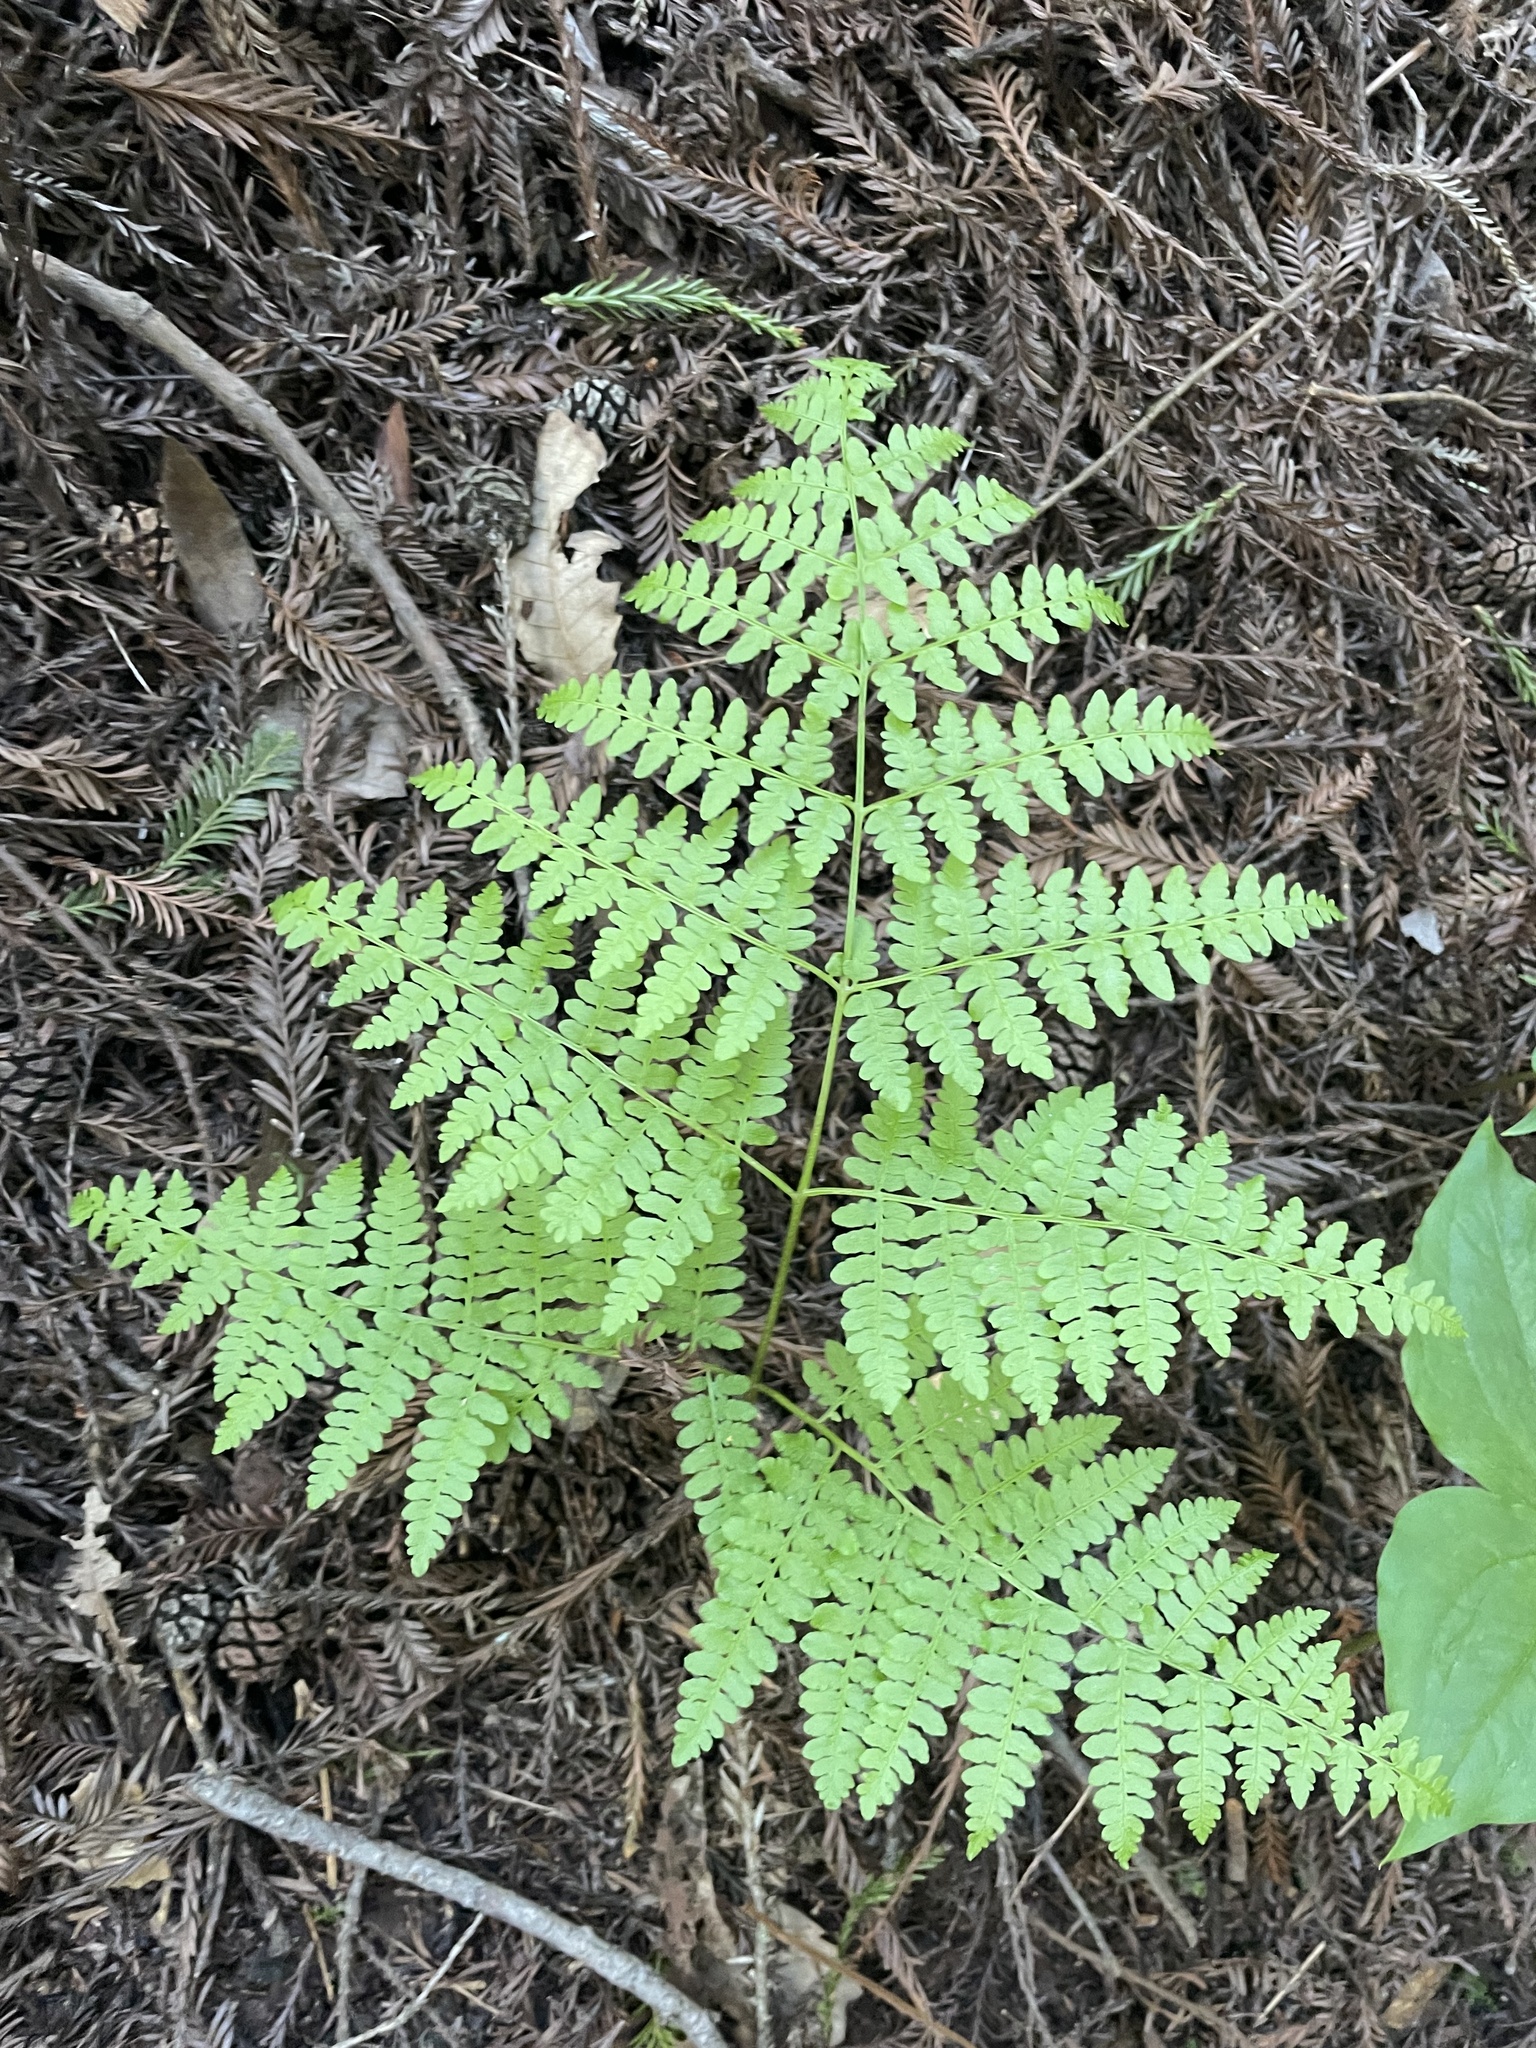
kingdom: Plantae
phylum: Tracheophyta
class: Polypodiopsida
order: Polypodiales
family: Dennstaedtiaceae
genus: Pteridium
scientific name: Pteridium aquilinum
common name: Bracken
